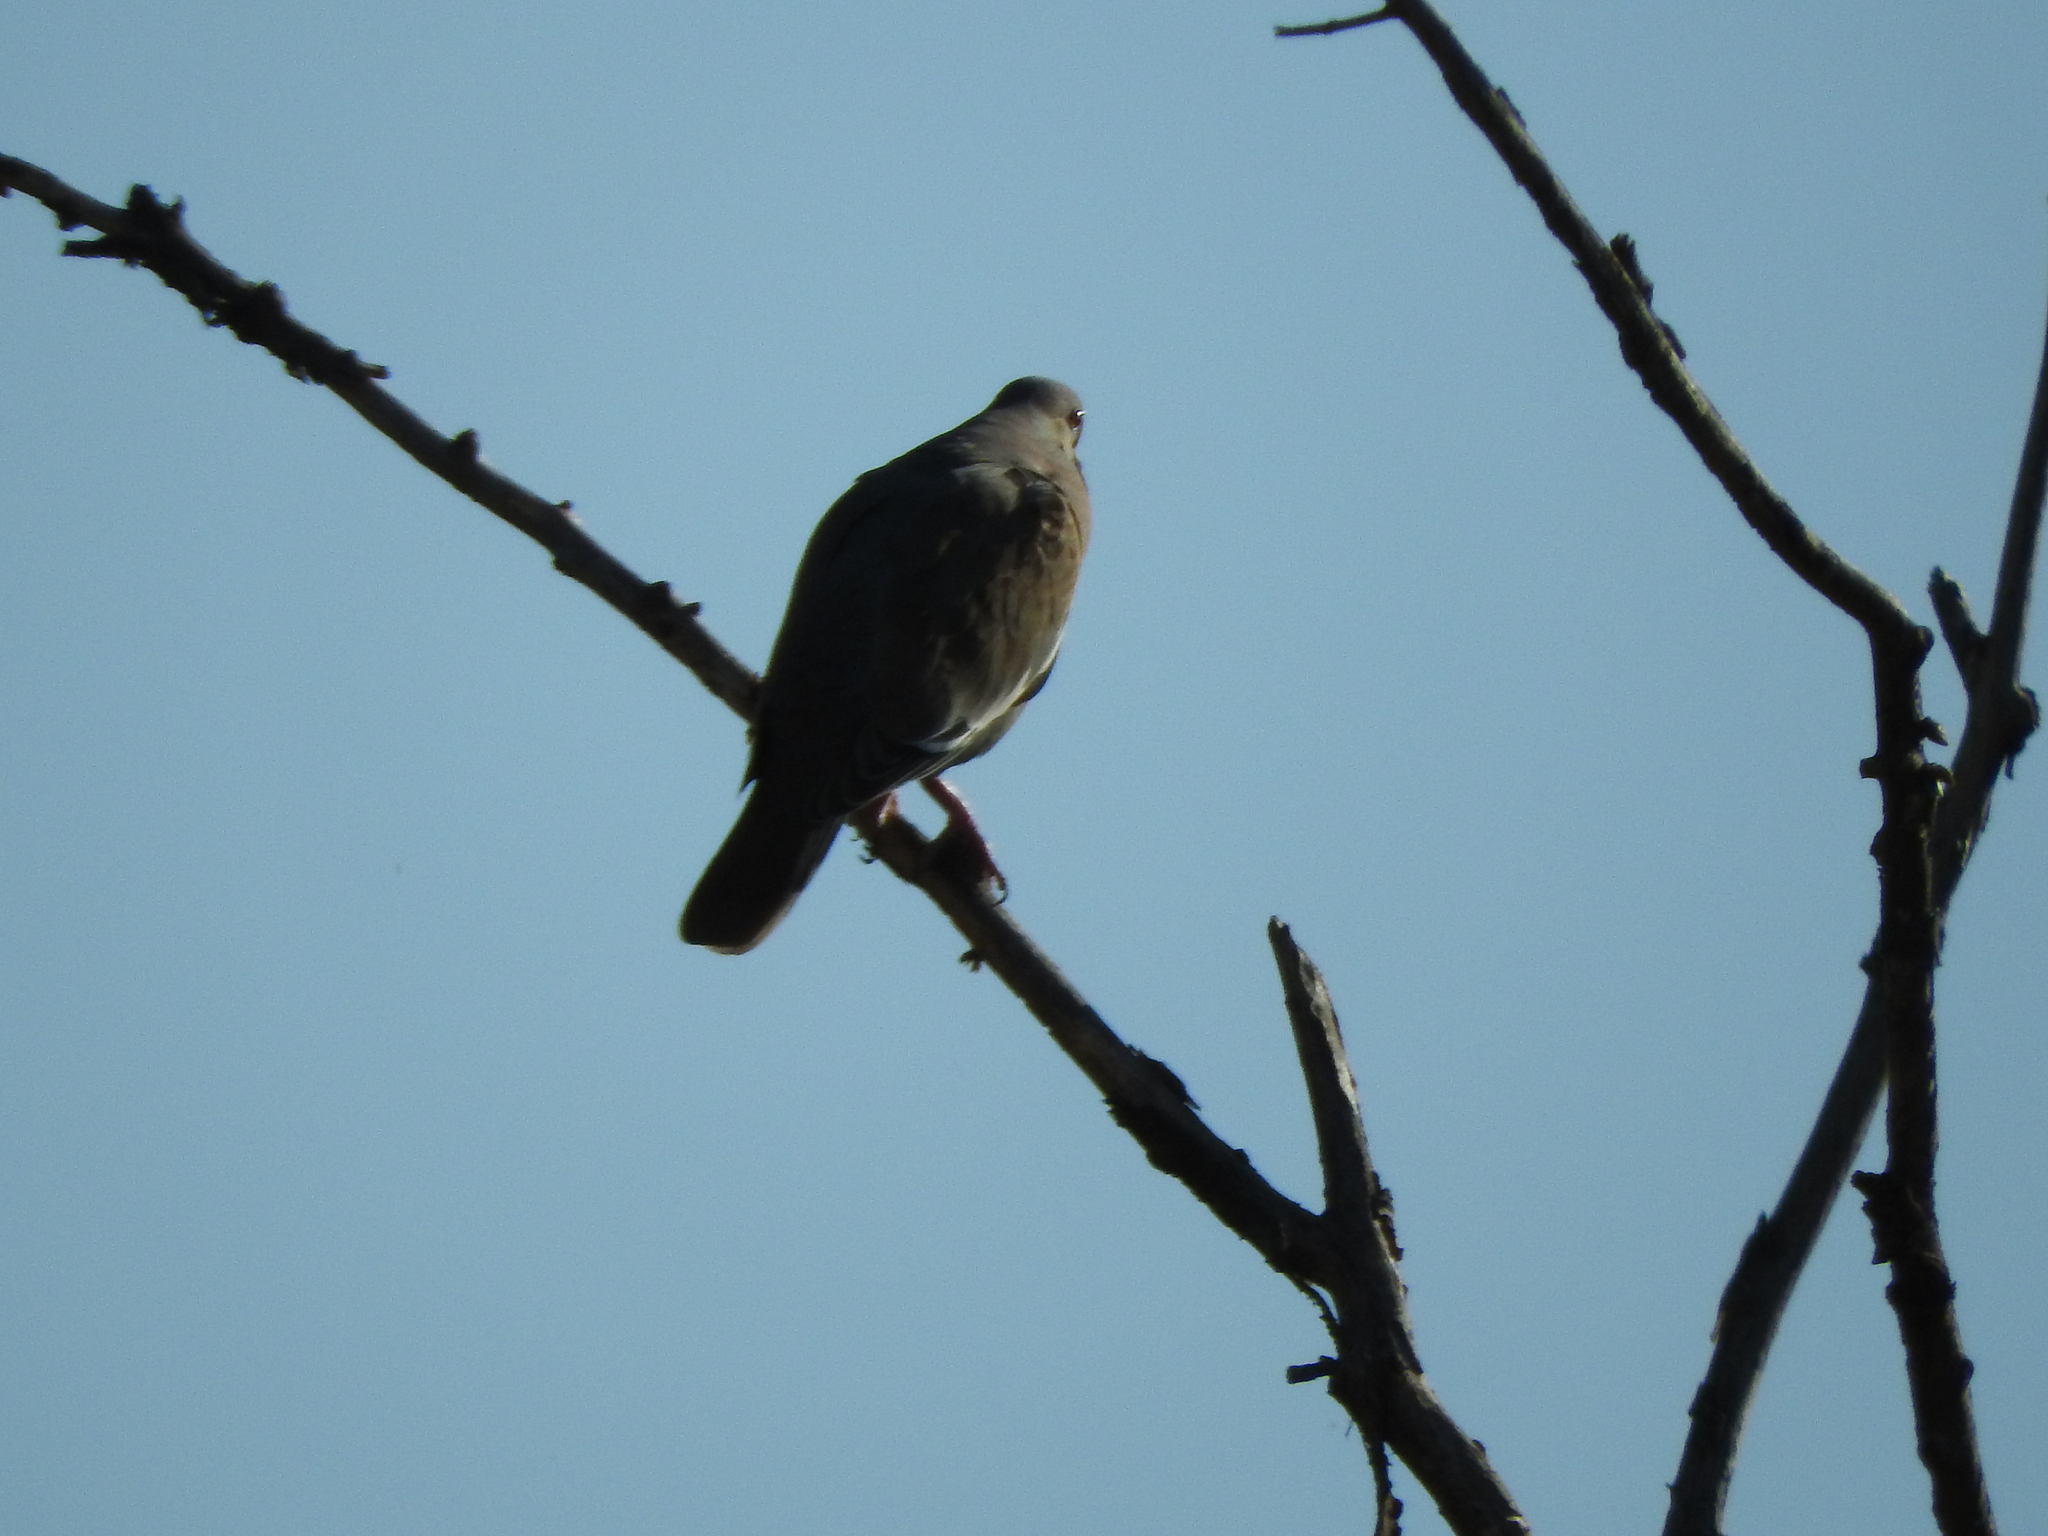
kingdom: Animalia
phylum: Chordata
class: Aves
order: Columbiformes
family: Columbidae
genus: Zenaida
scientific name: Zenaida asiatica
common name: White-winged dove
